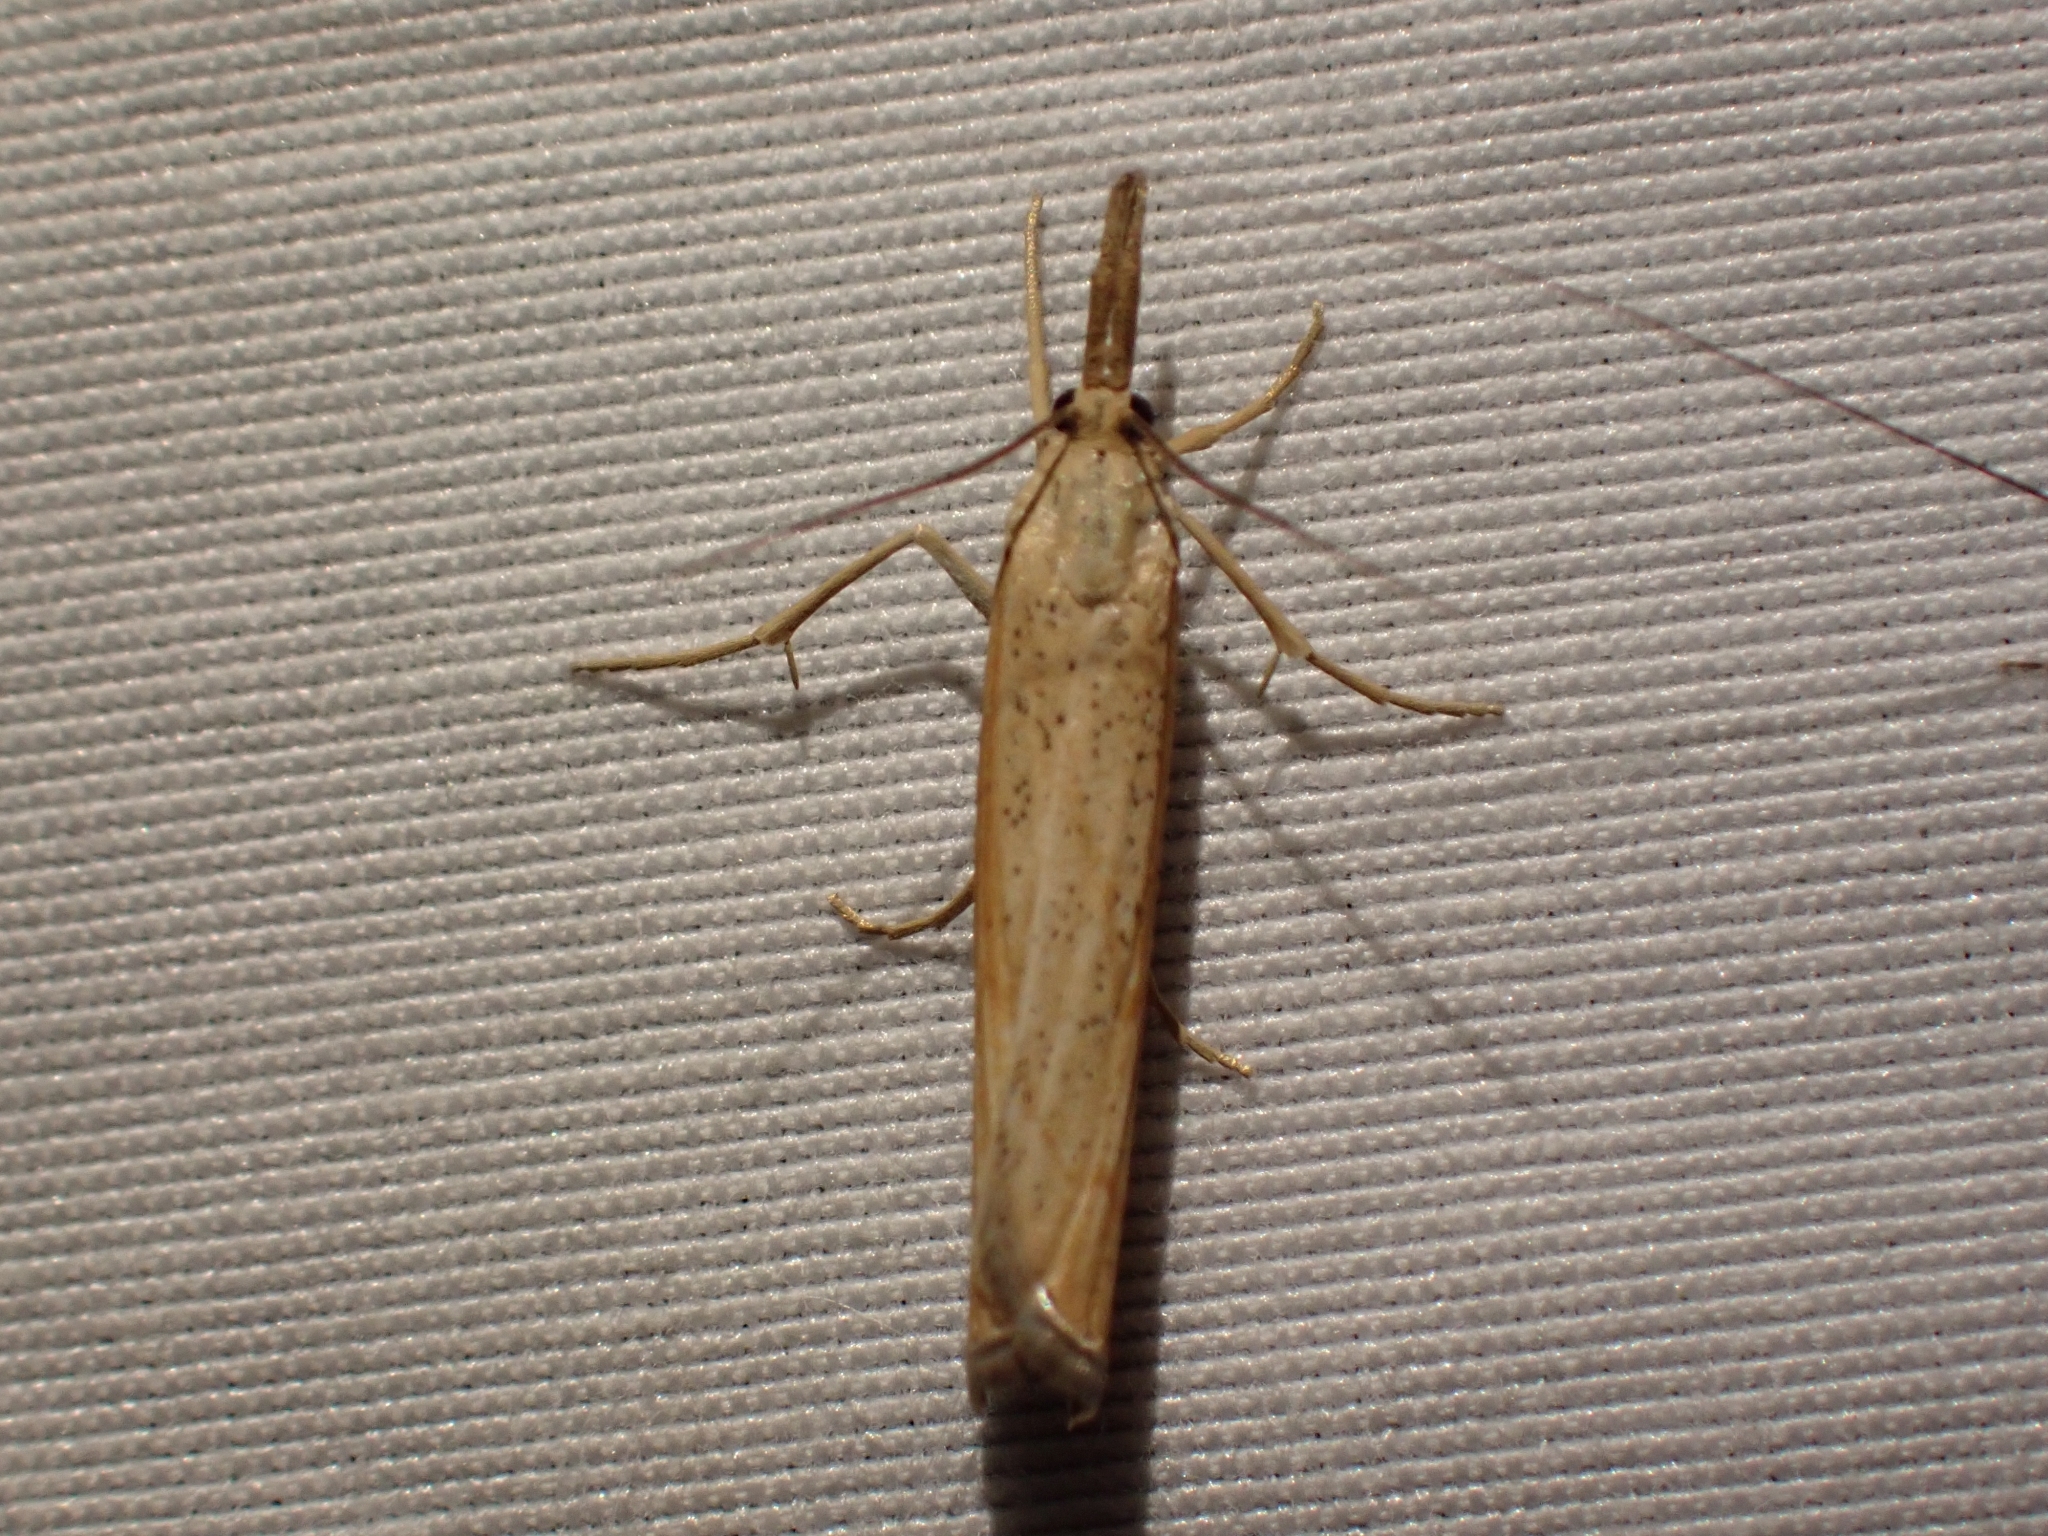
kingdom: Animalia
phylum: Arthropoda
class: Insecta
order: Lepidoptera
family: Crambidae
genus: Pediasia
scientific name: Pediasia dorsipunctellus
